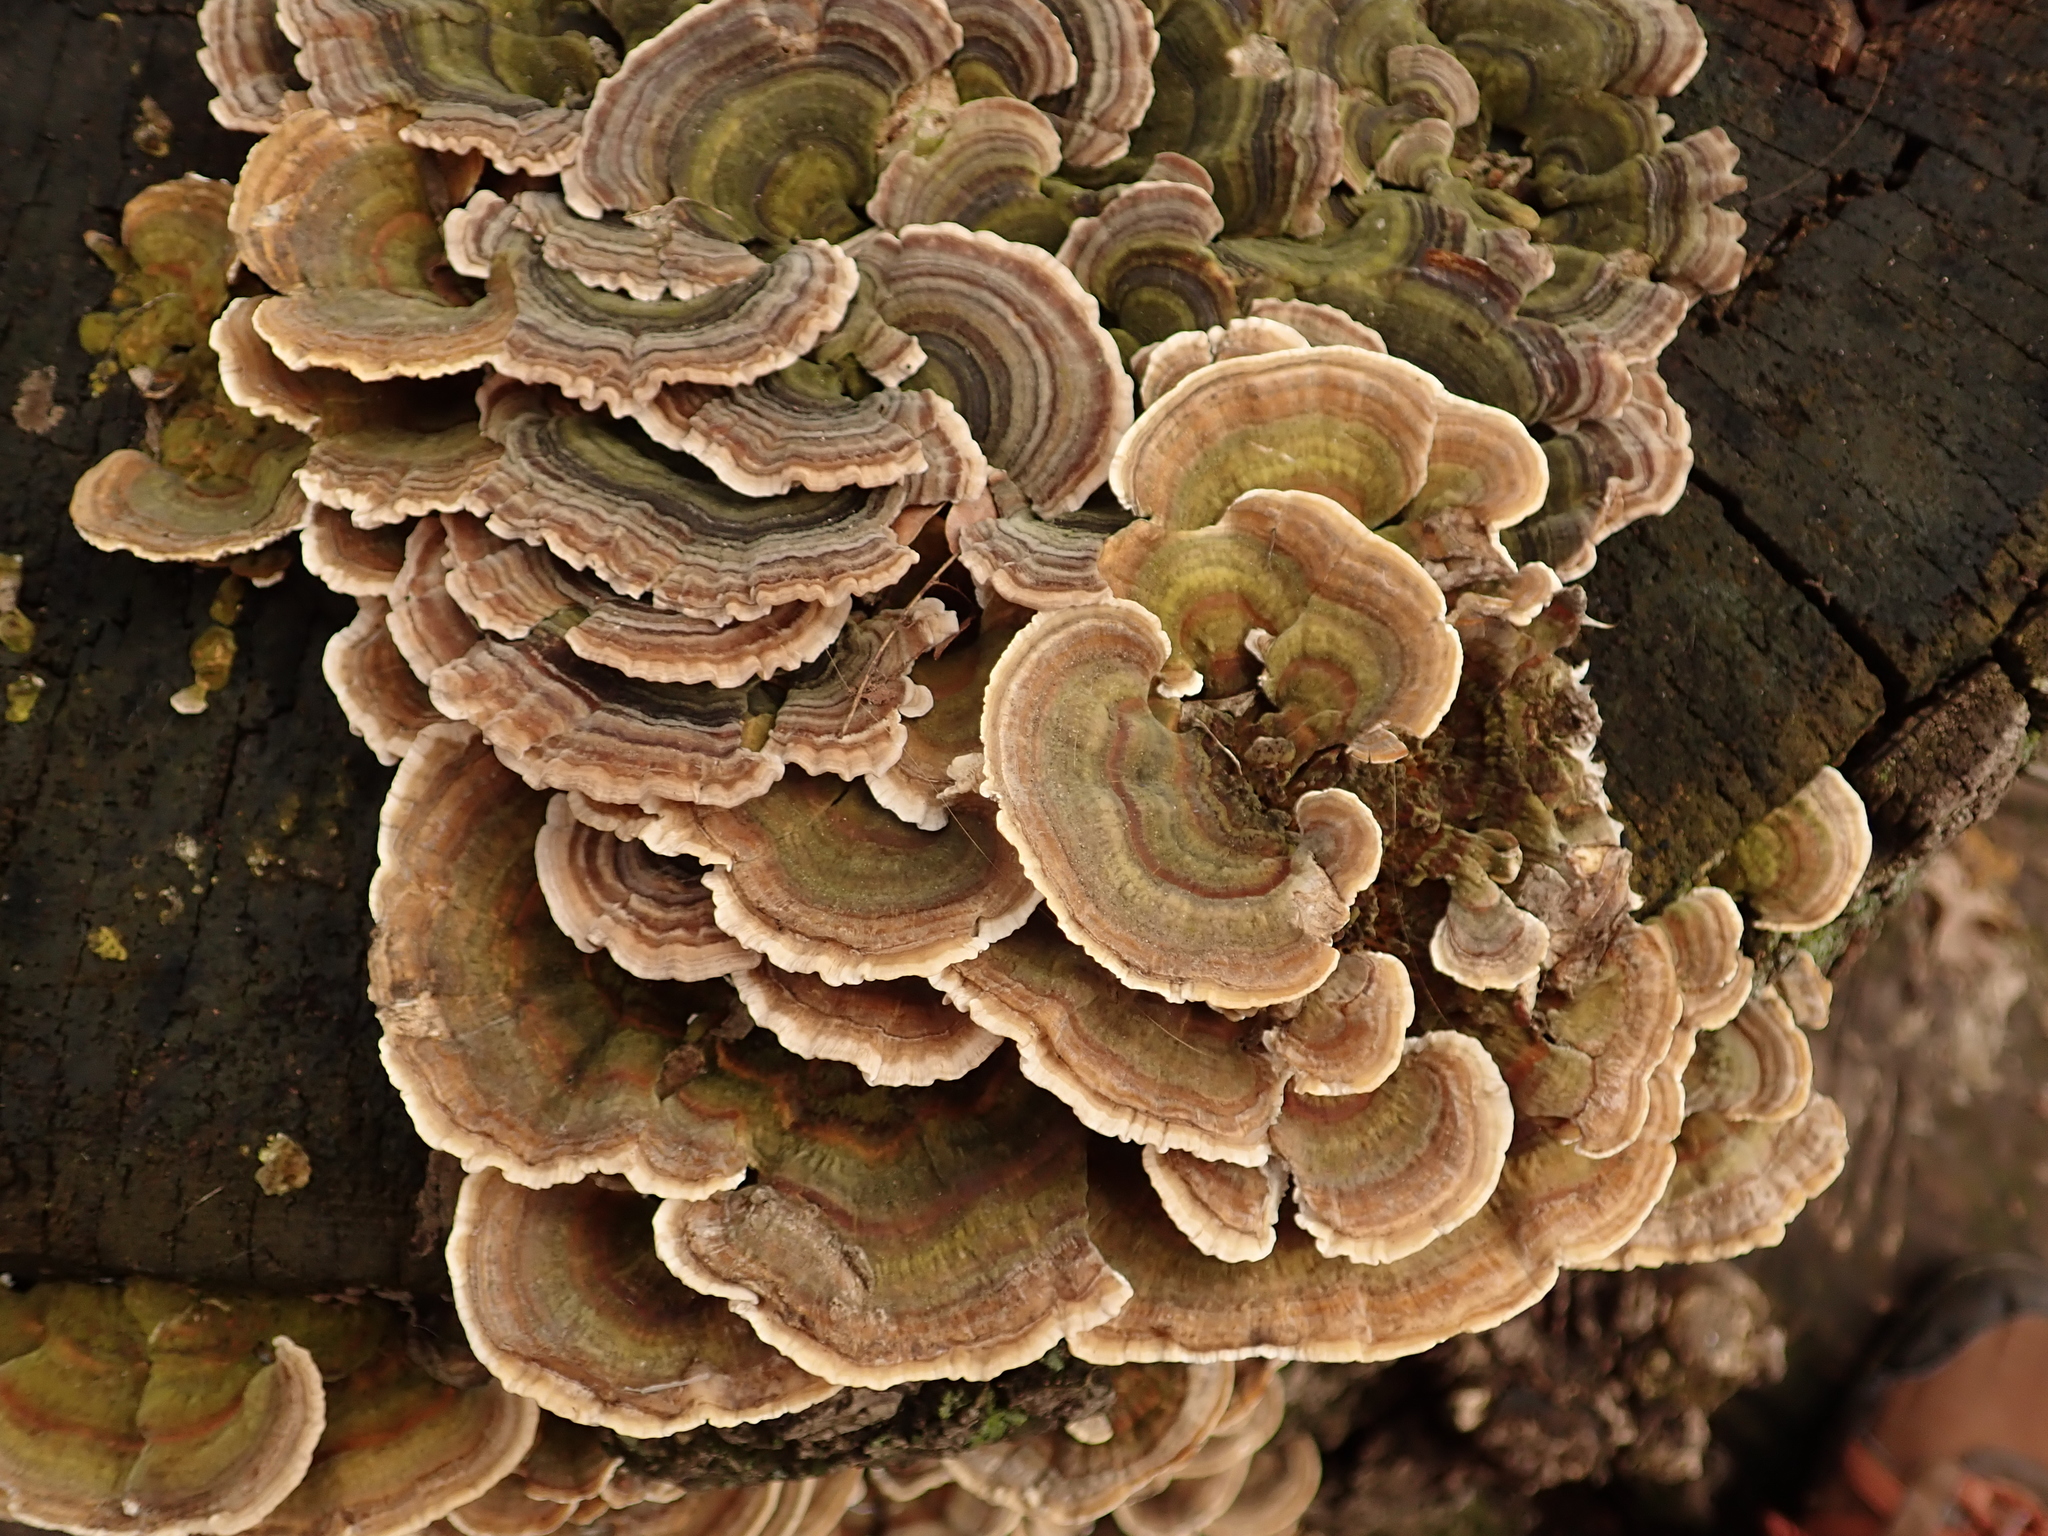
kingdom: Fungi
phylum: Basidiomycota
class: Agaricomycetes
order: Polyporales
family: Polyporaceae
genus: Trametes
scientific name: Trametes versicolor
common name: Turkeytail
